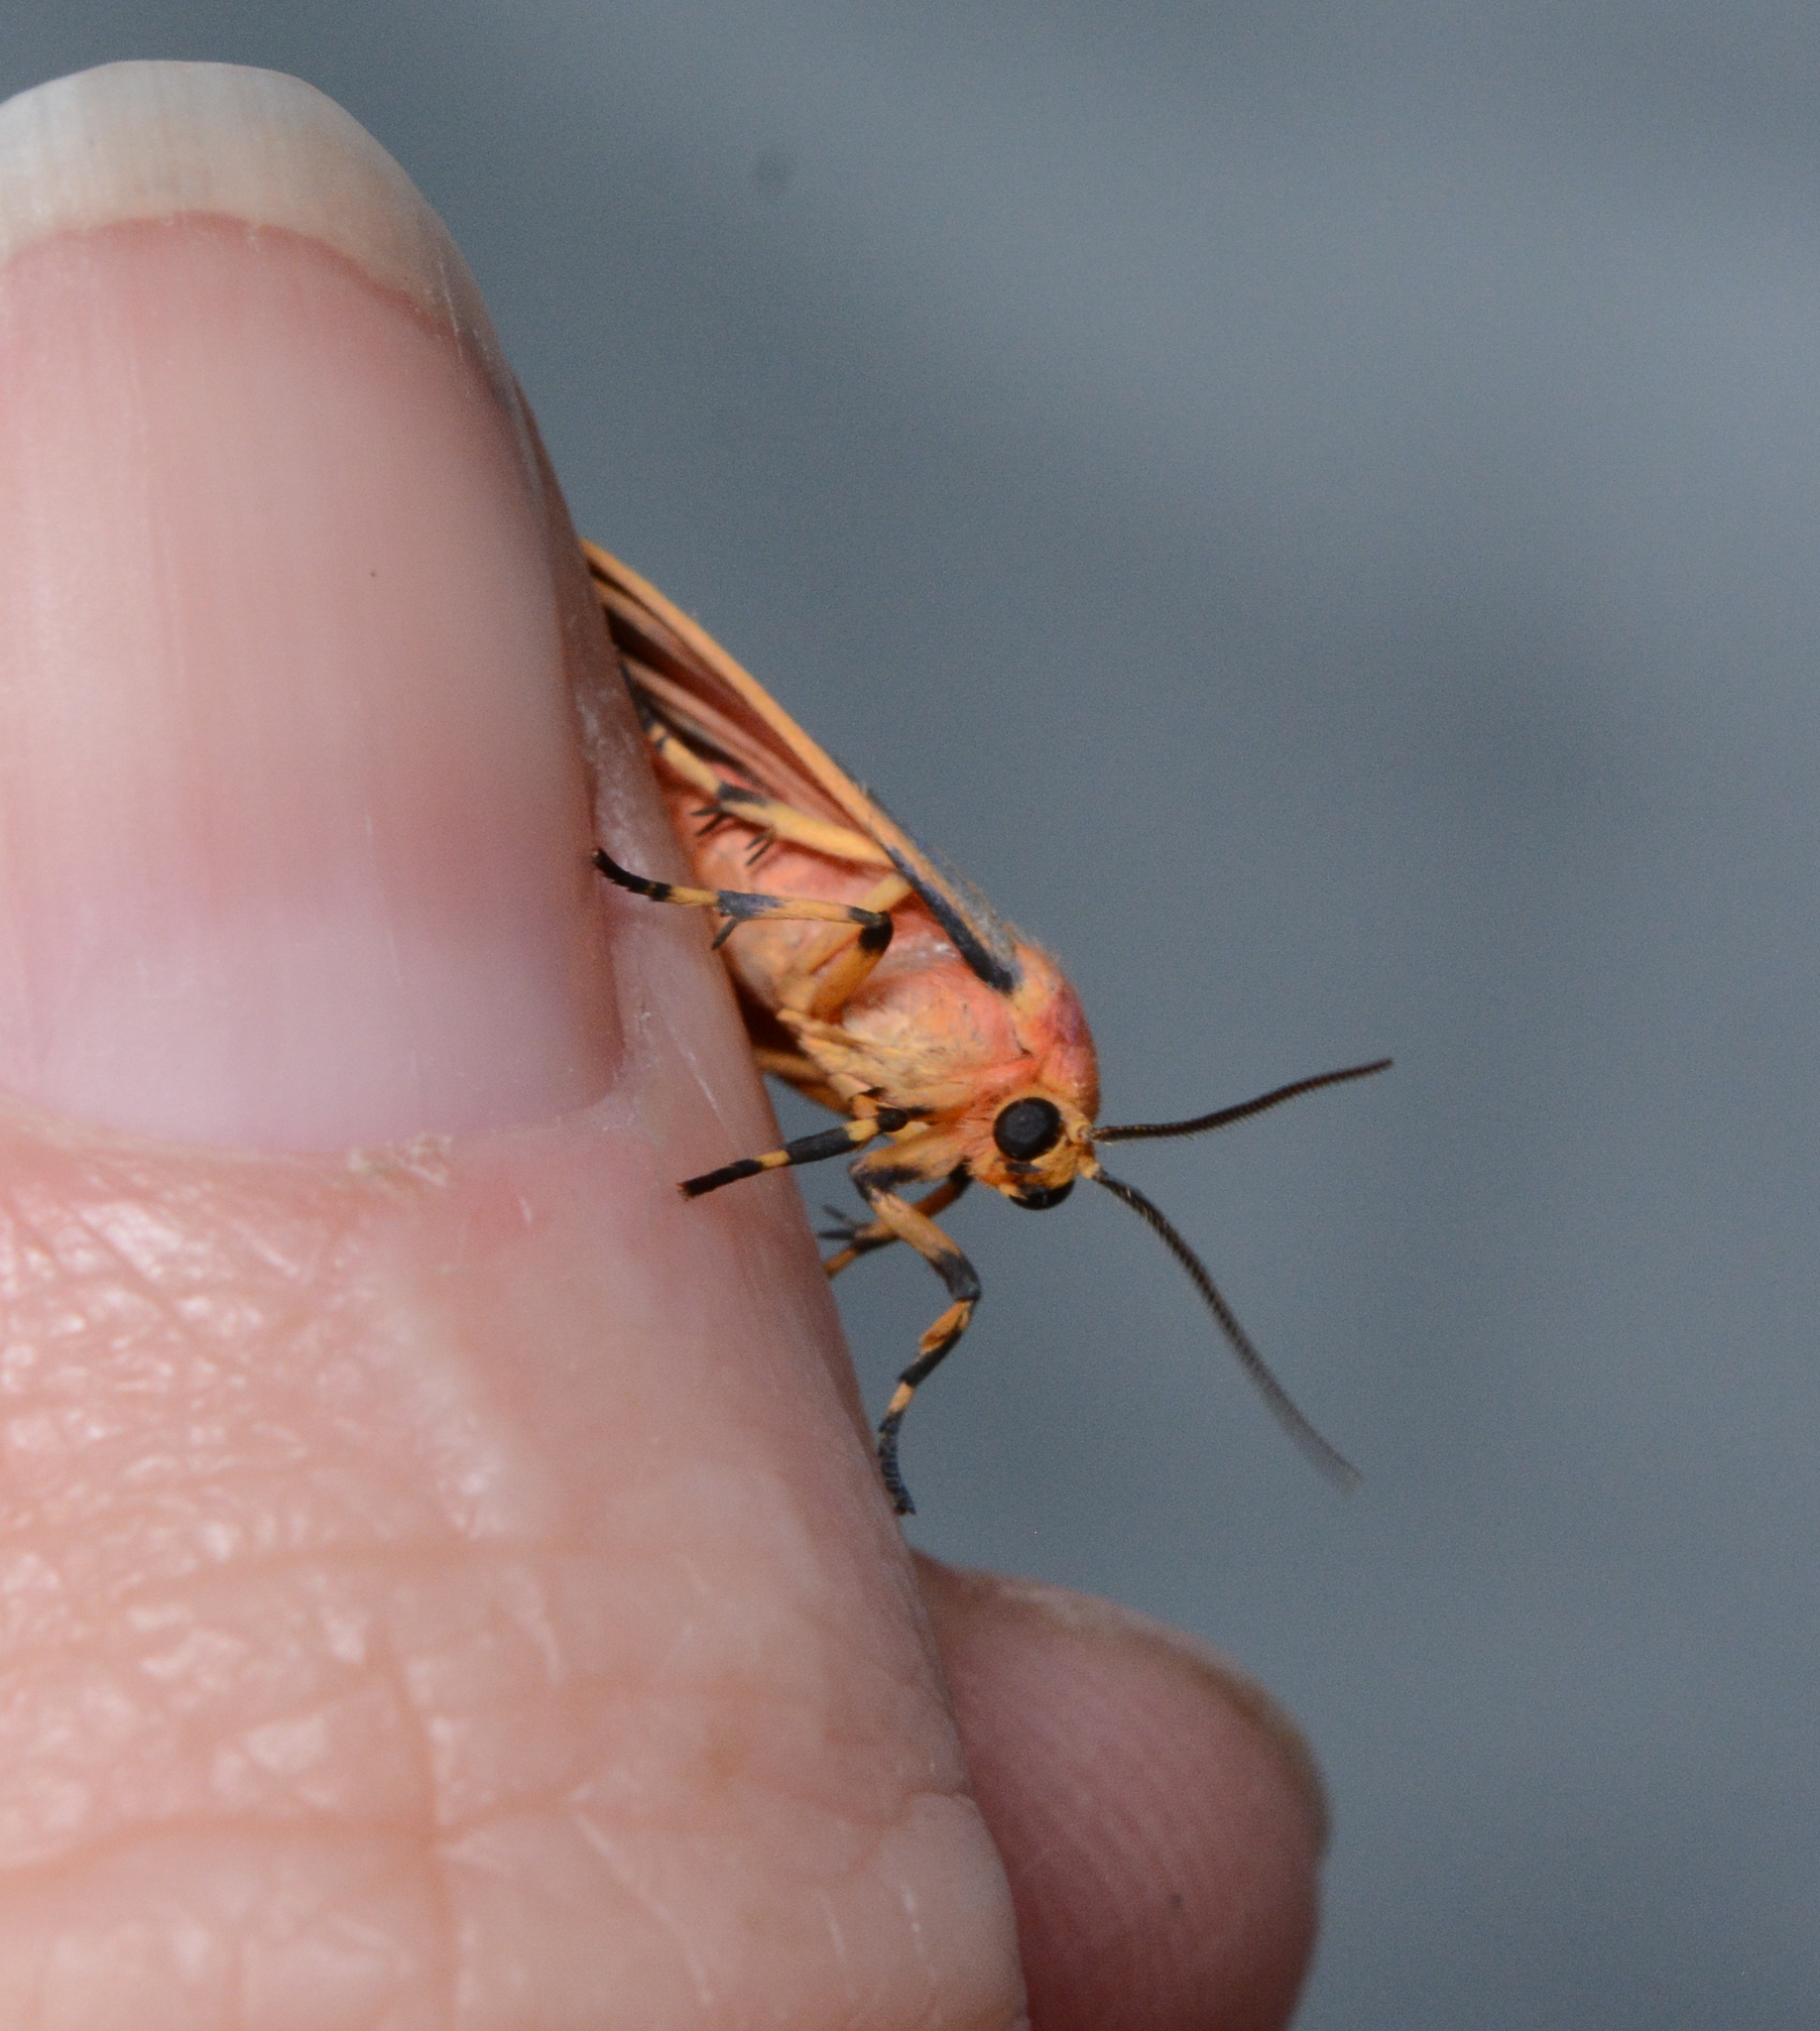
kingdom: Animalia
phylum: Arthropoda
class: Insecta
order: Lepidoptera
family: Erebidae
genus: Hypoprepia
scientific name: Hypoprepia fucosa
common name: Painted lichen moth
